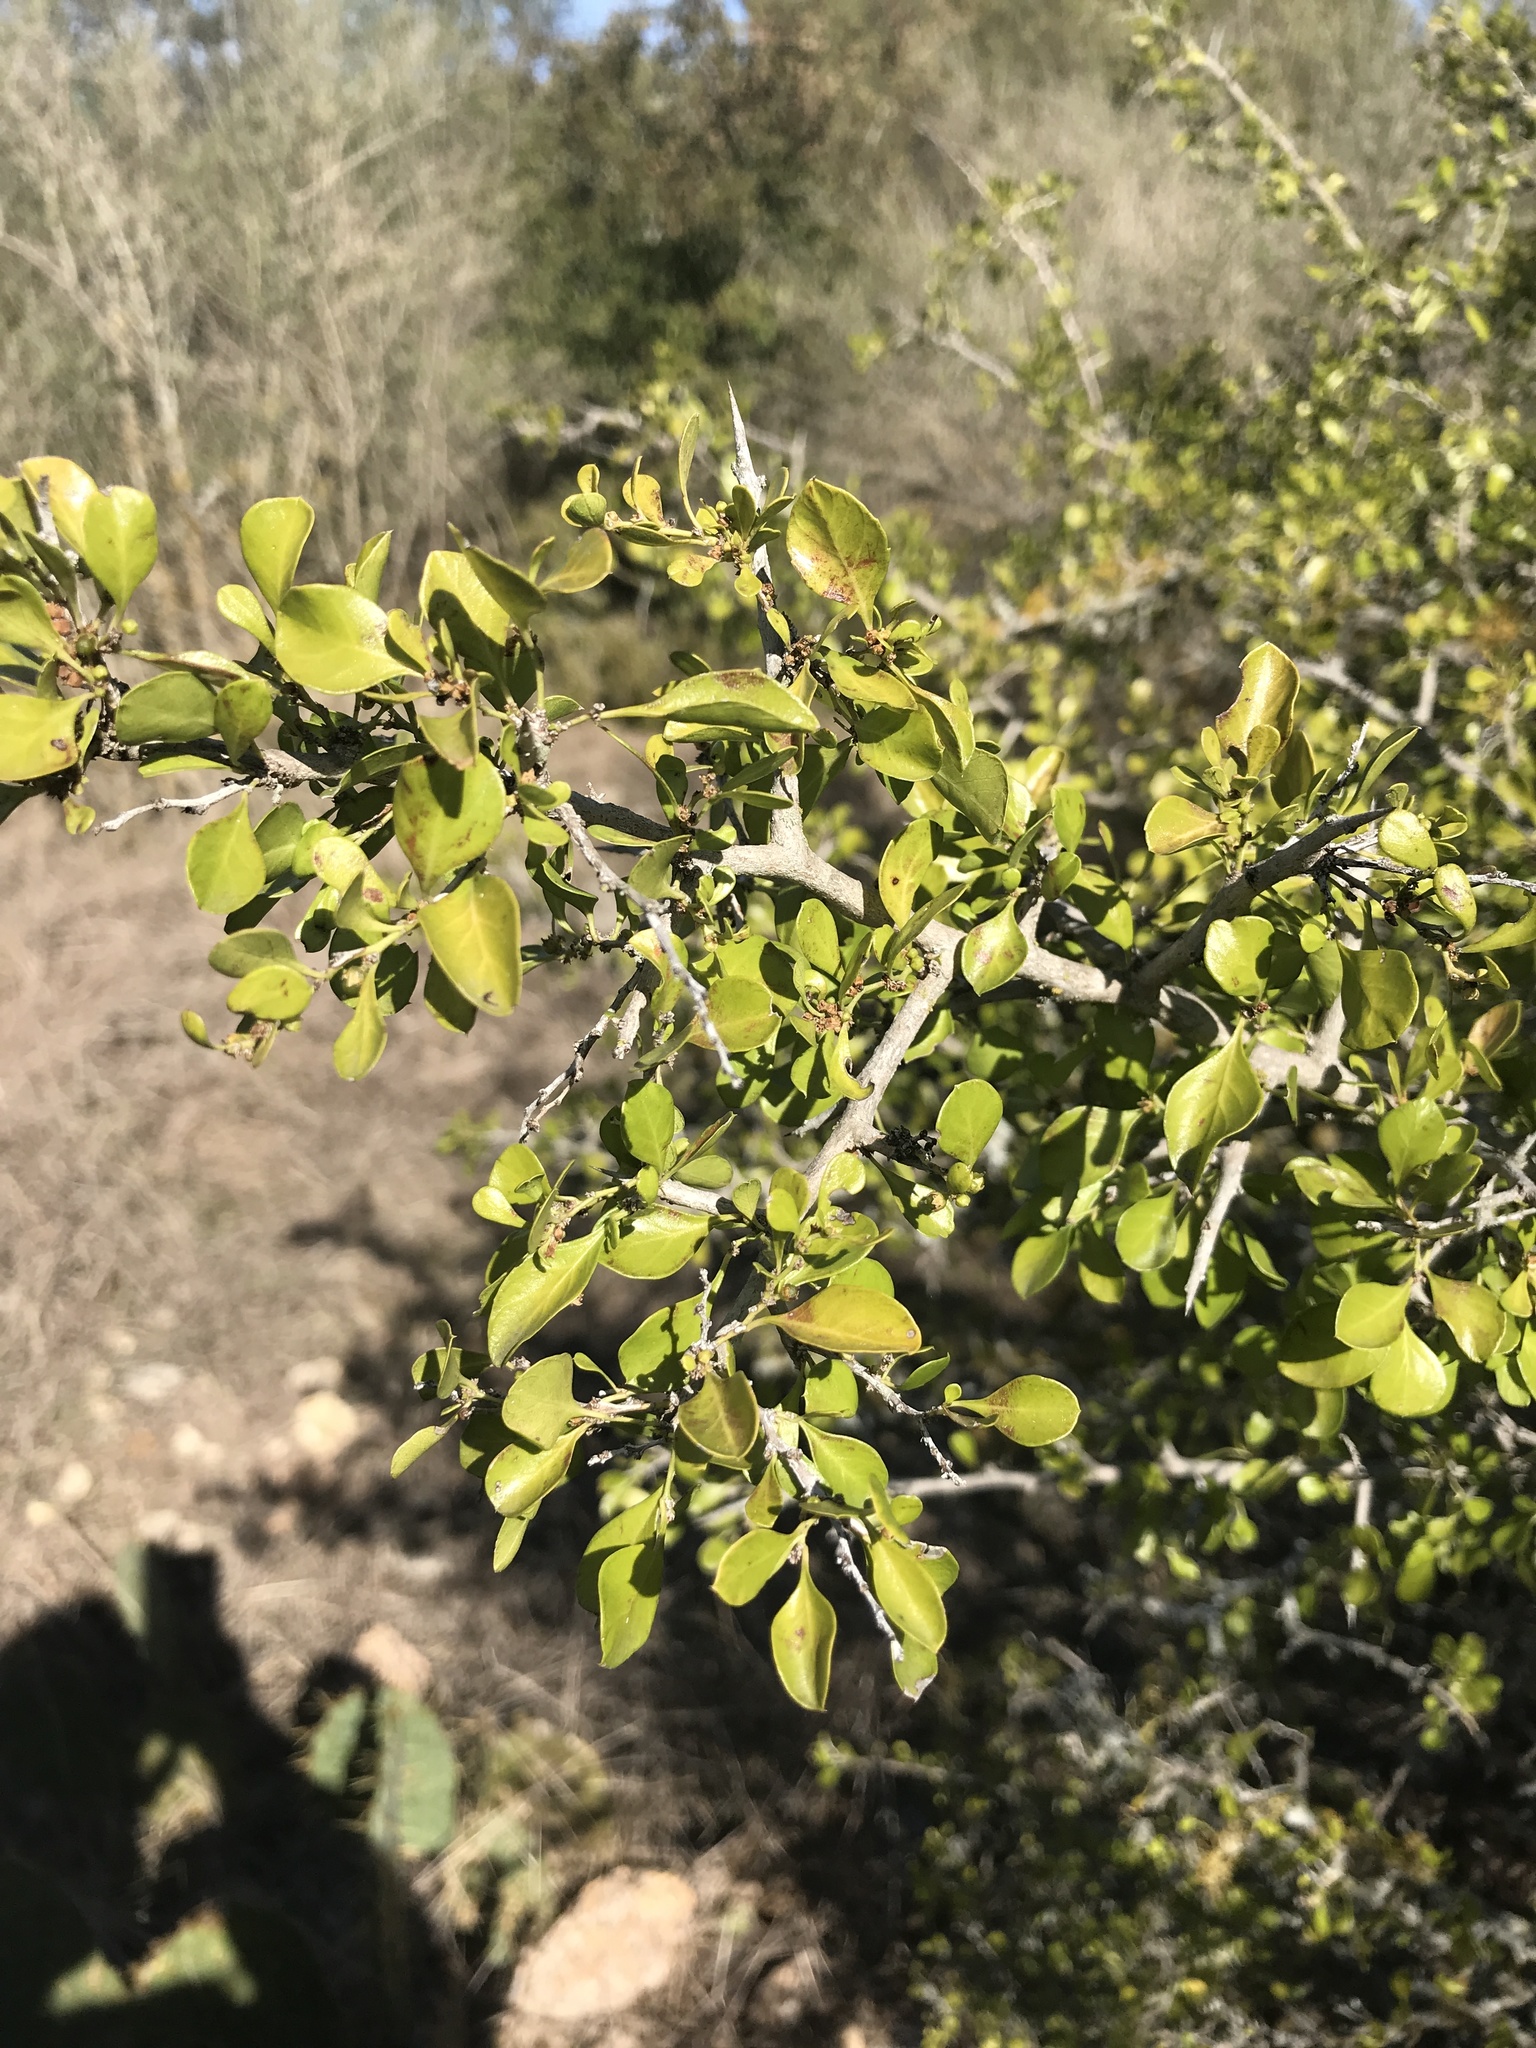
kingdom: Plantae
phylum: Tracheophyta
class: Magnoliopsida
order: Rosales
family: Rhamnaceae
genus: Condalia
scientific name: Condalia hookeri
